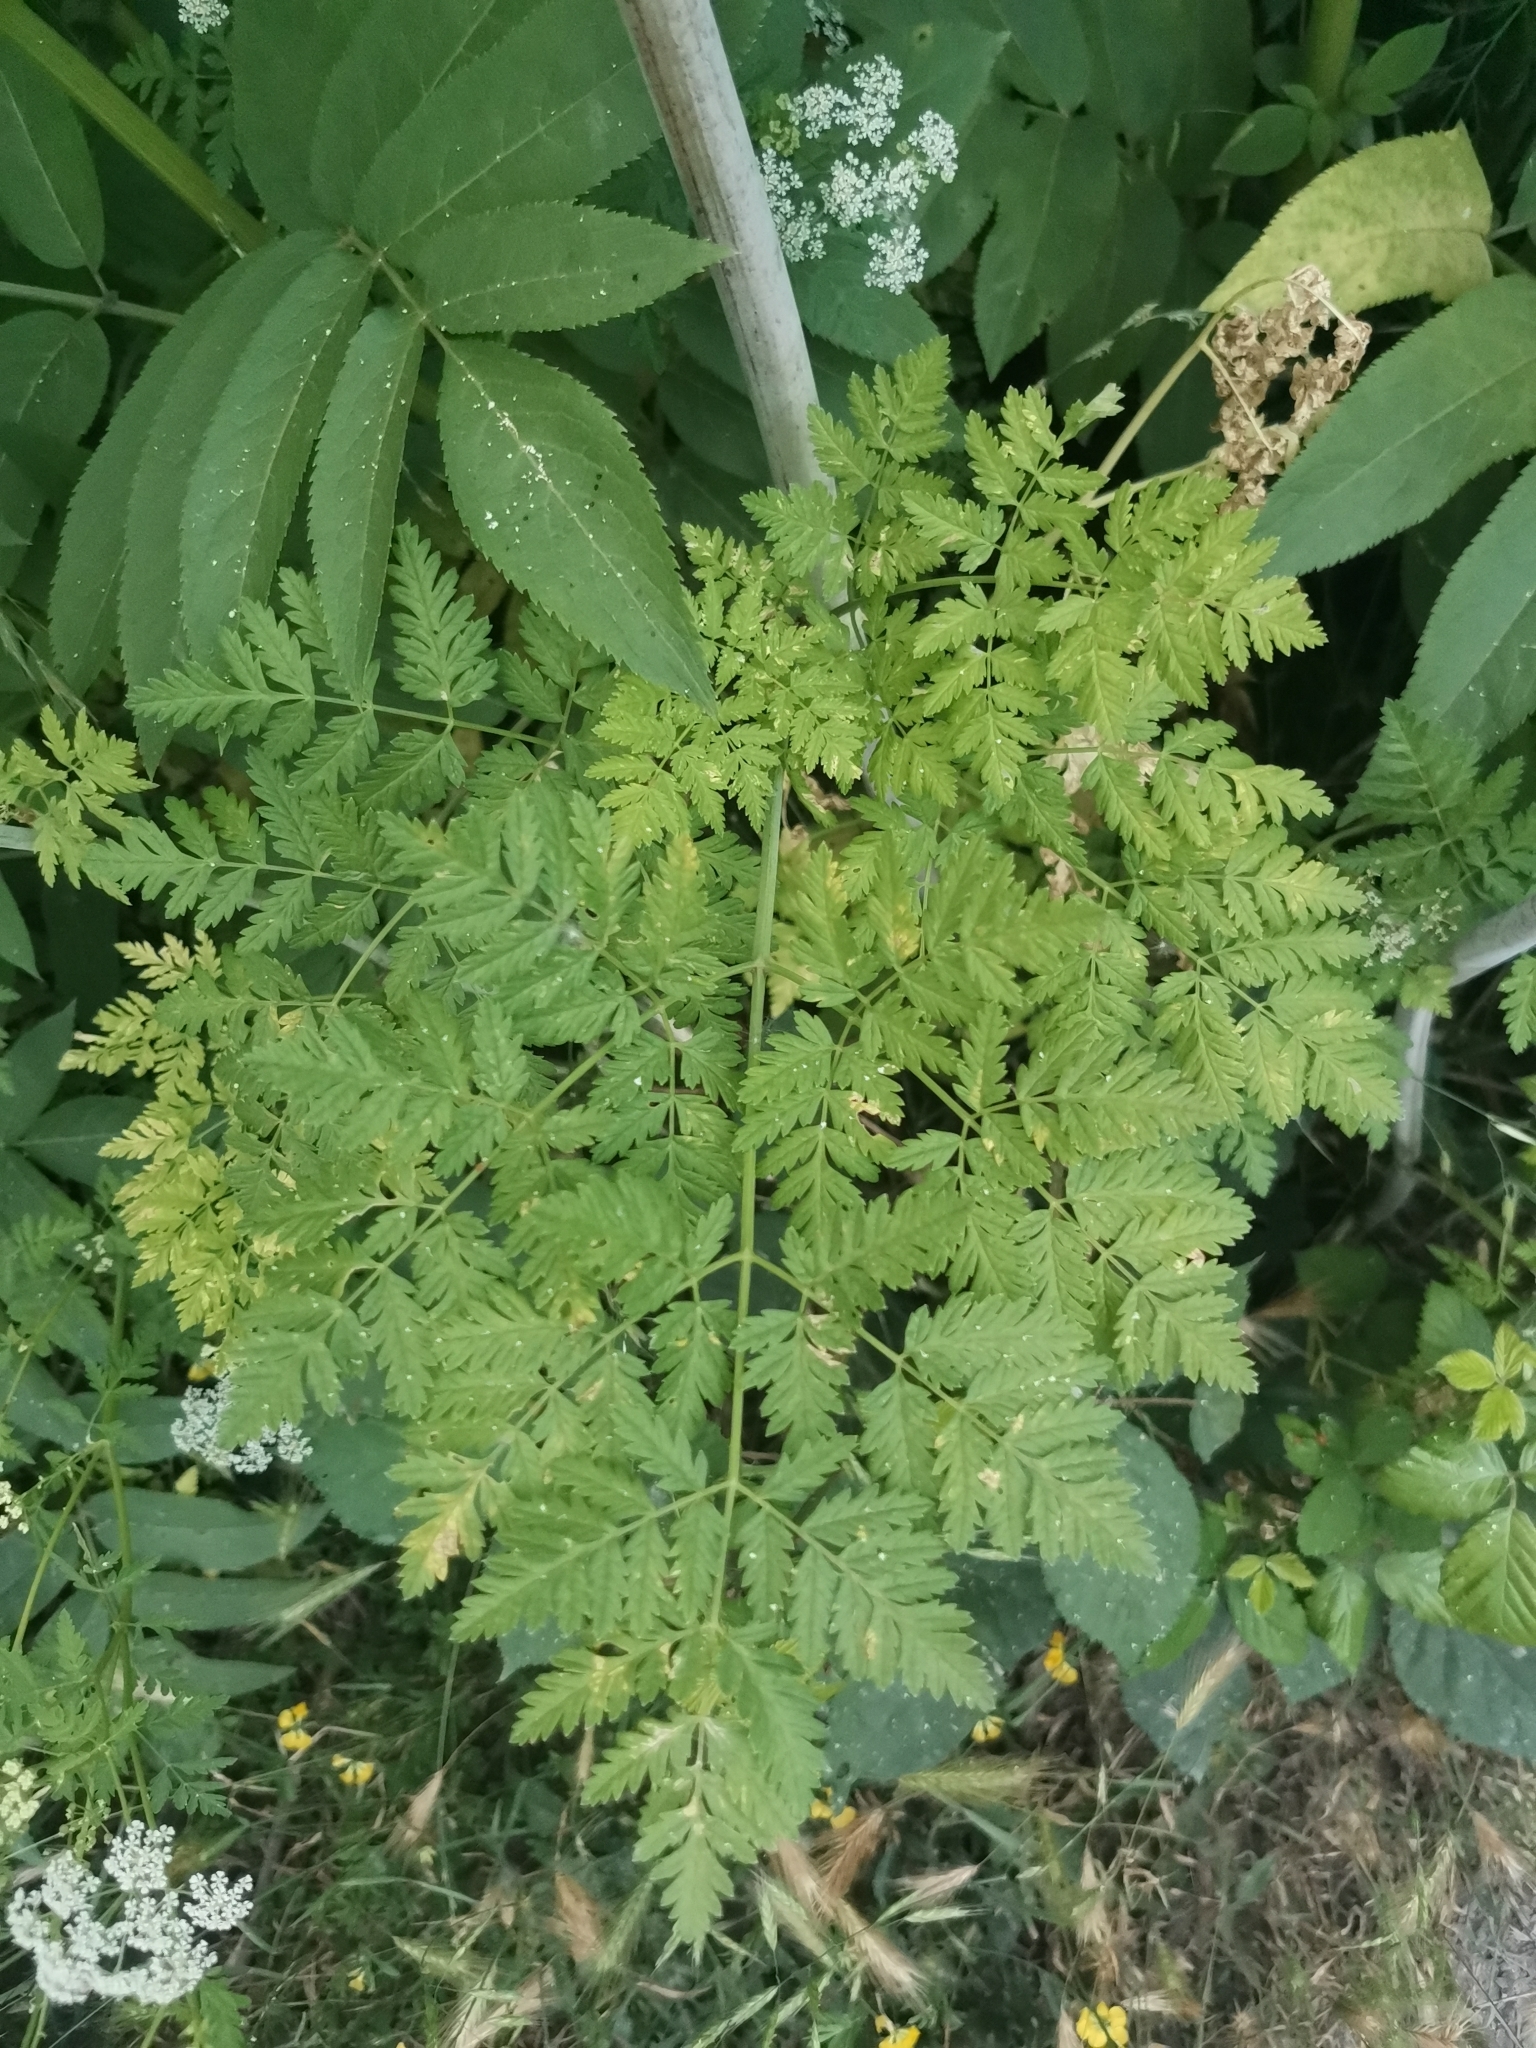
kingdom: Plantae
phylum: Tracheophyta
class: Magnoliopsida
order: Apiales
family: Apiaceae
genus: Conium
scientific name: Conium maculatum
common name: Hemlock
